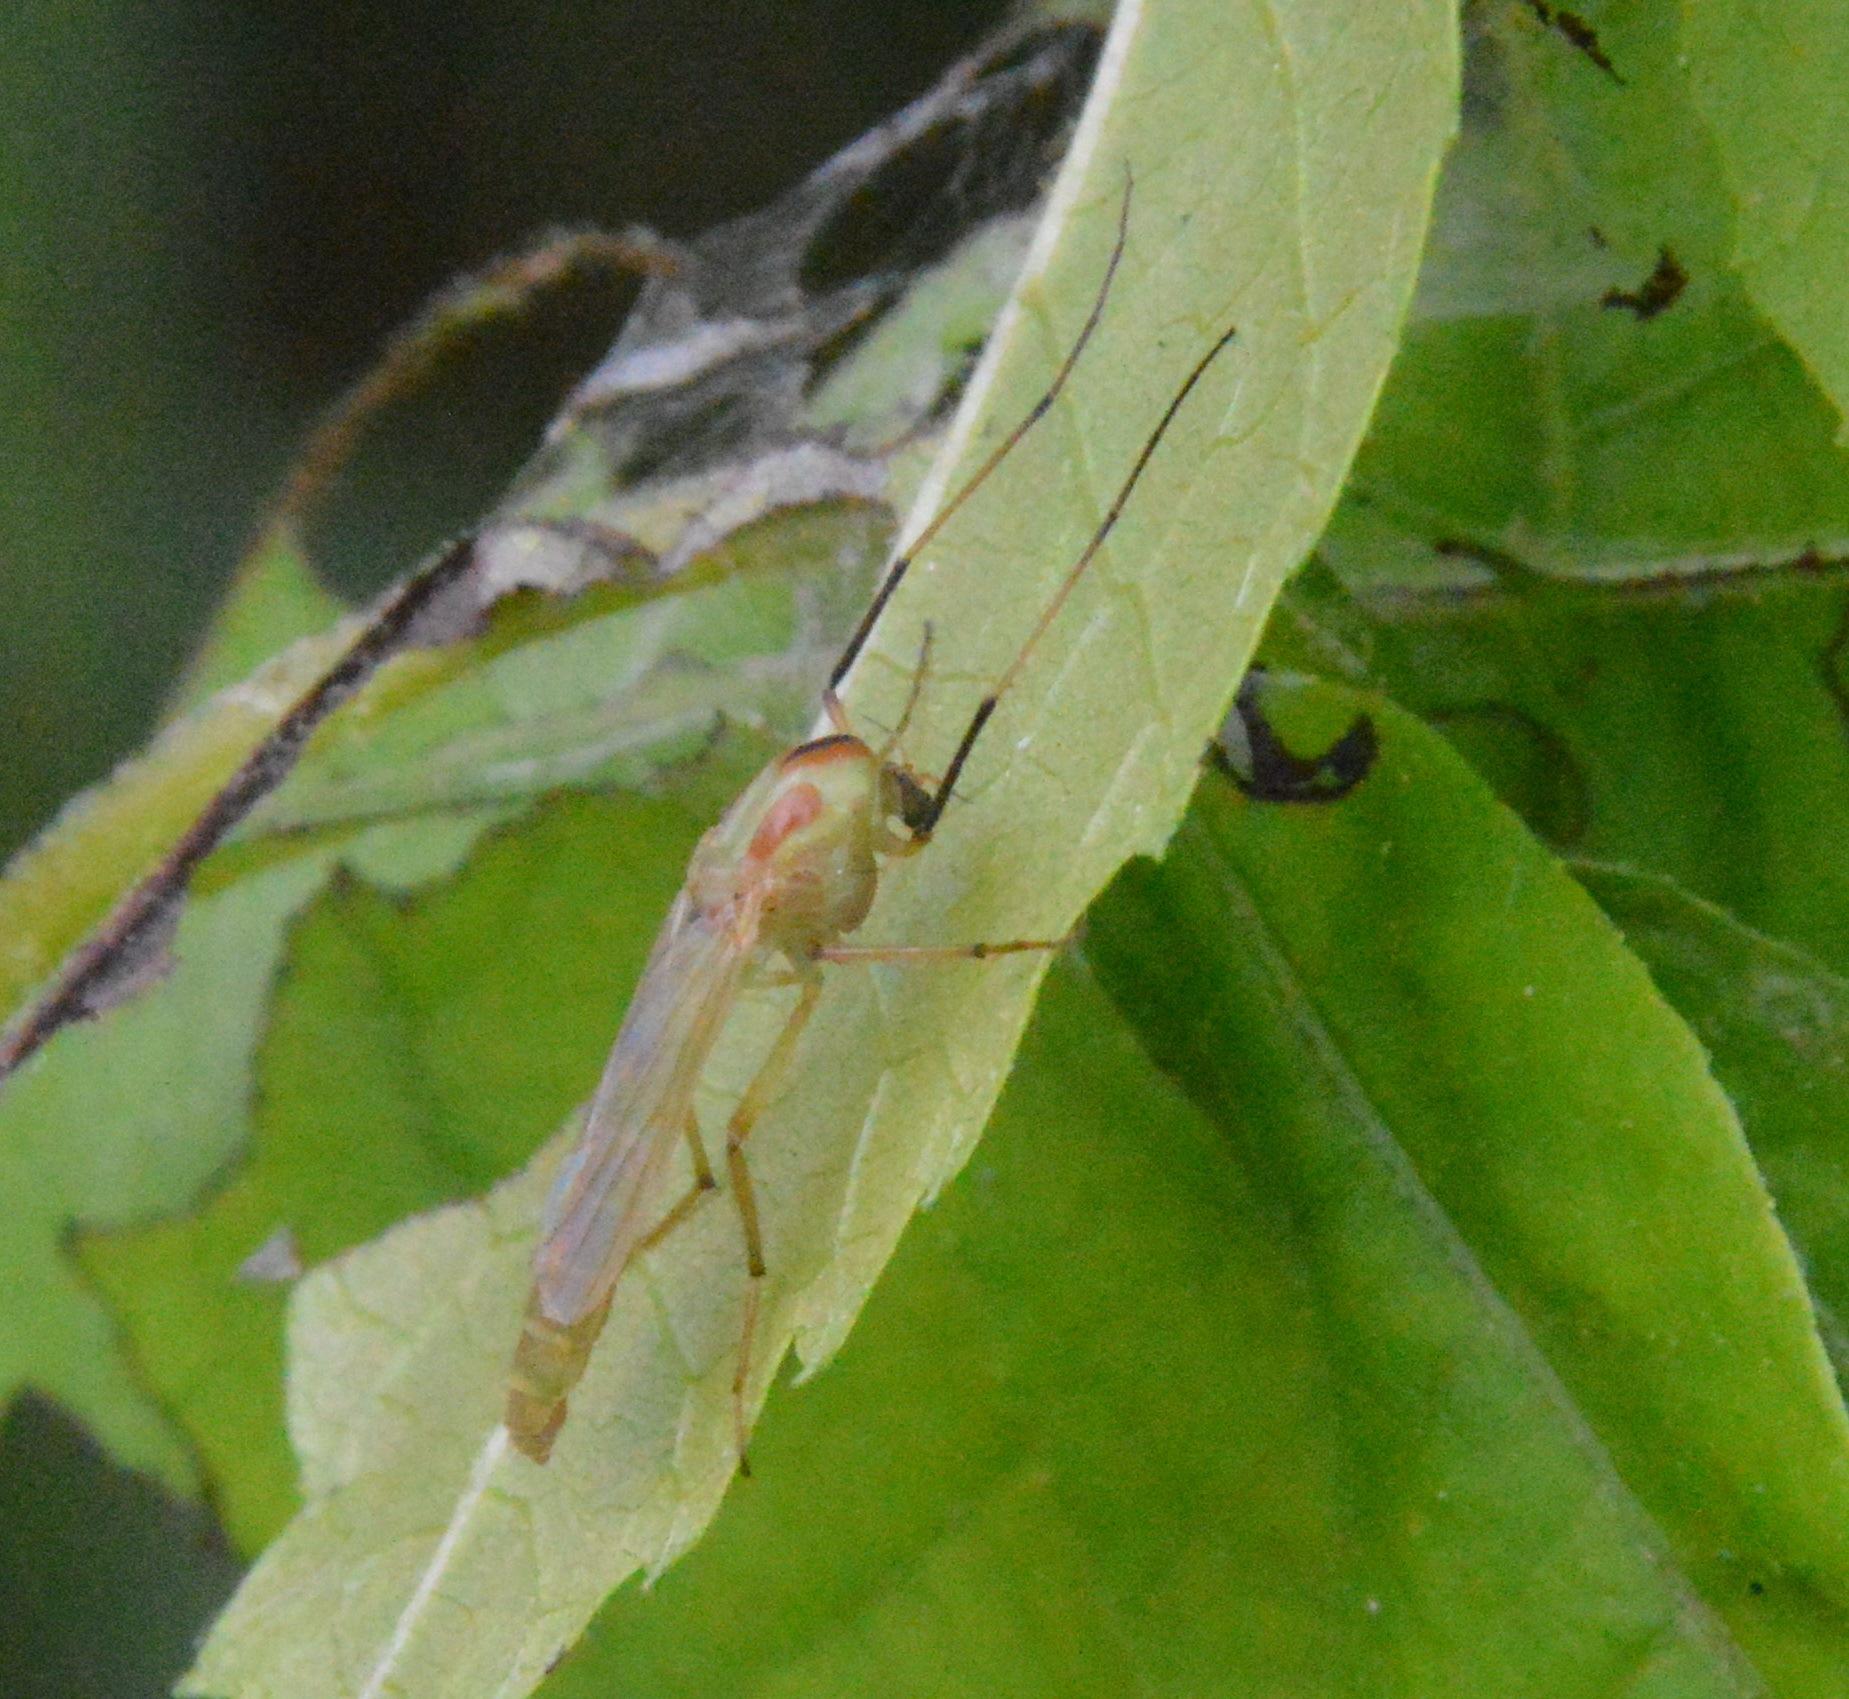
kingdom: Animalia
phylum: Arthropoda
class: Insecta
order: Diptera
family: Chironomidae
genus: Axarus
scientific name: Axarus
